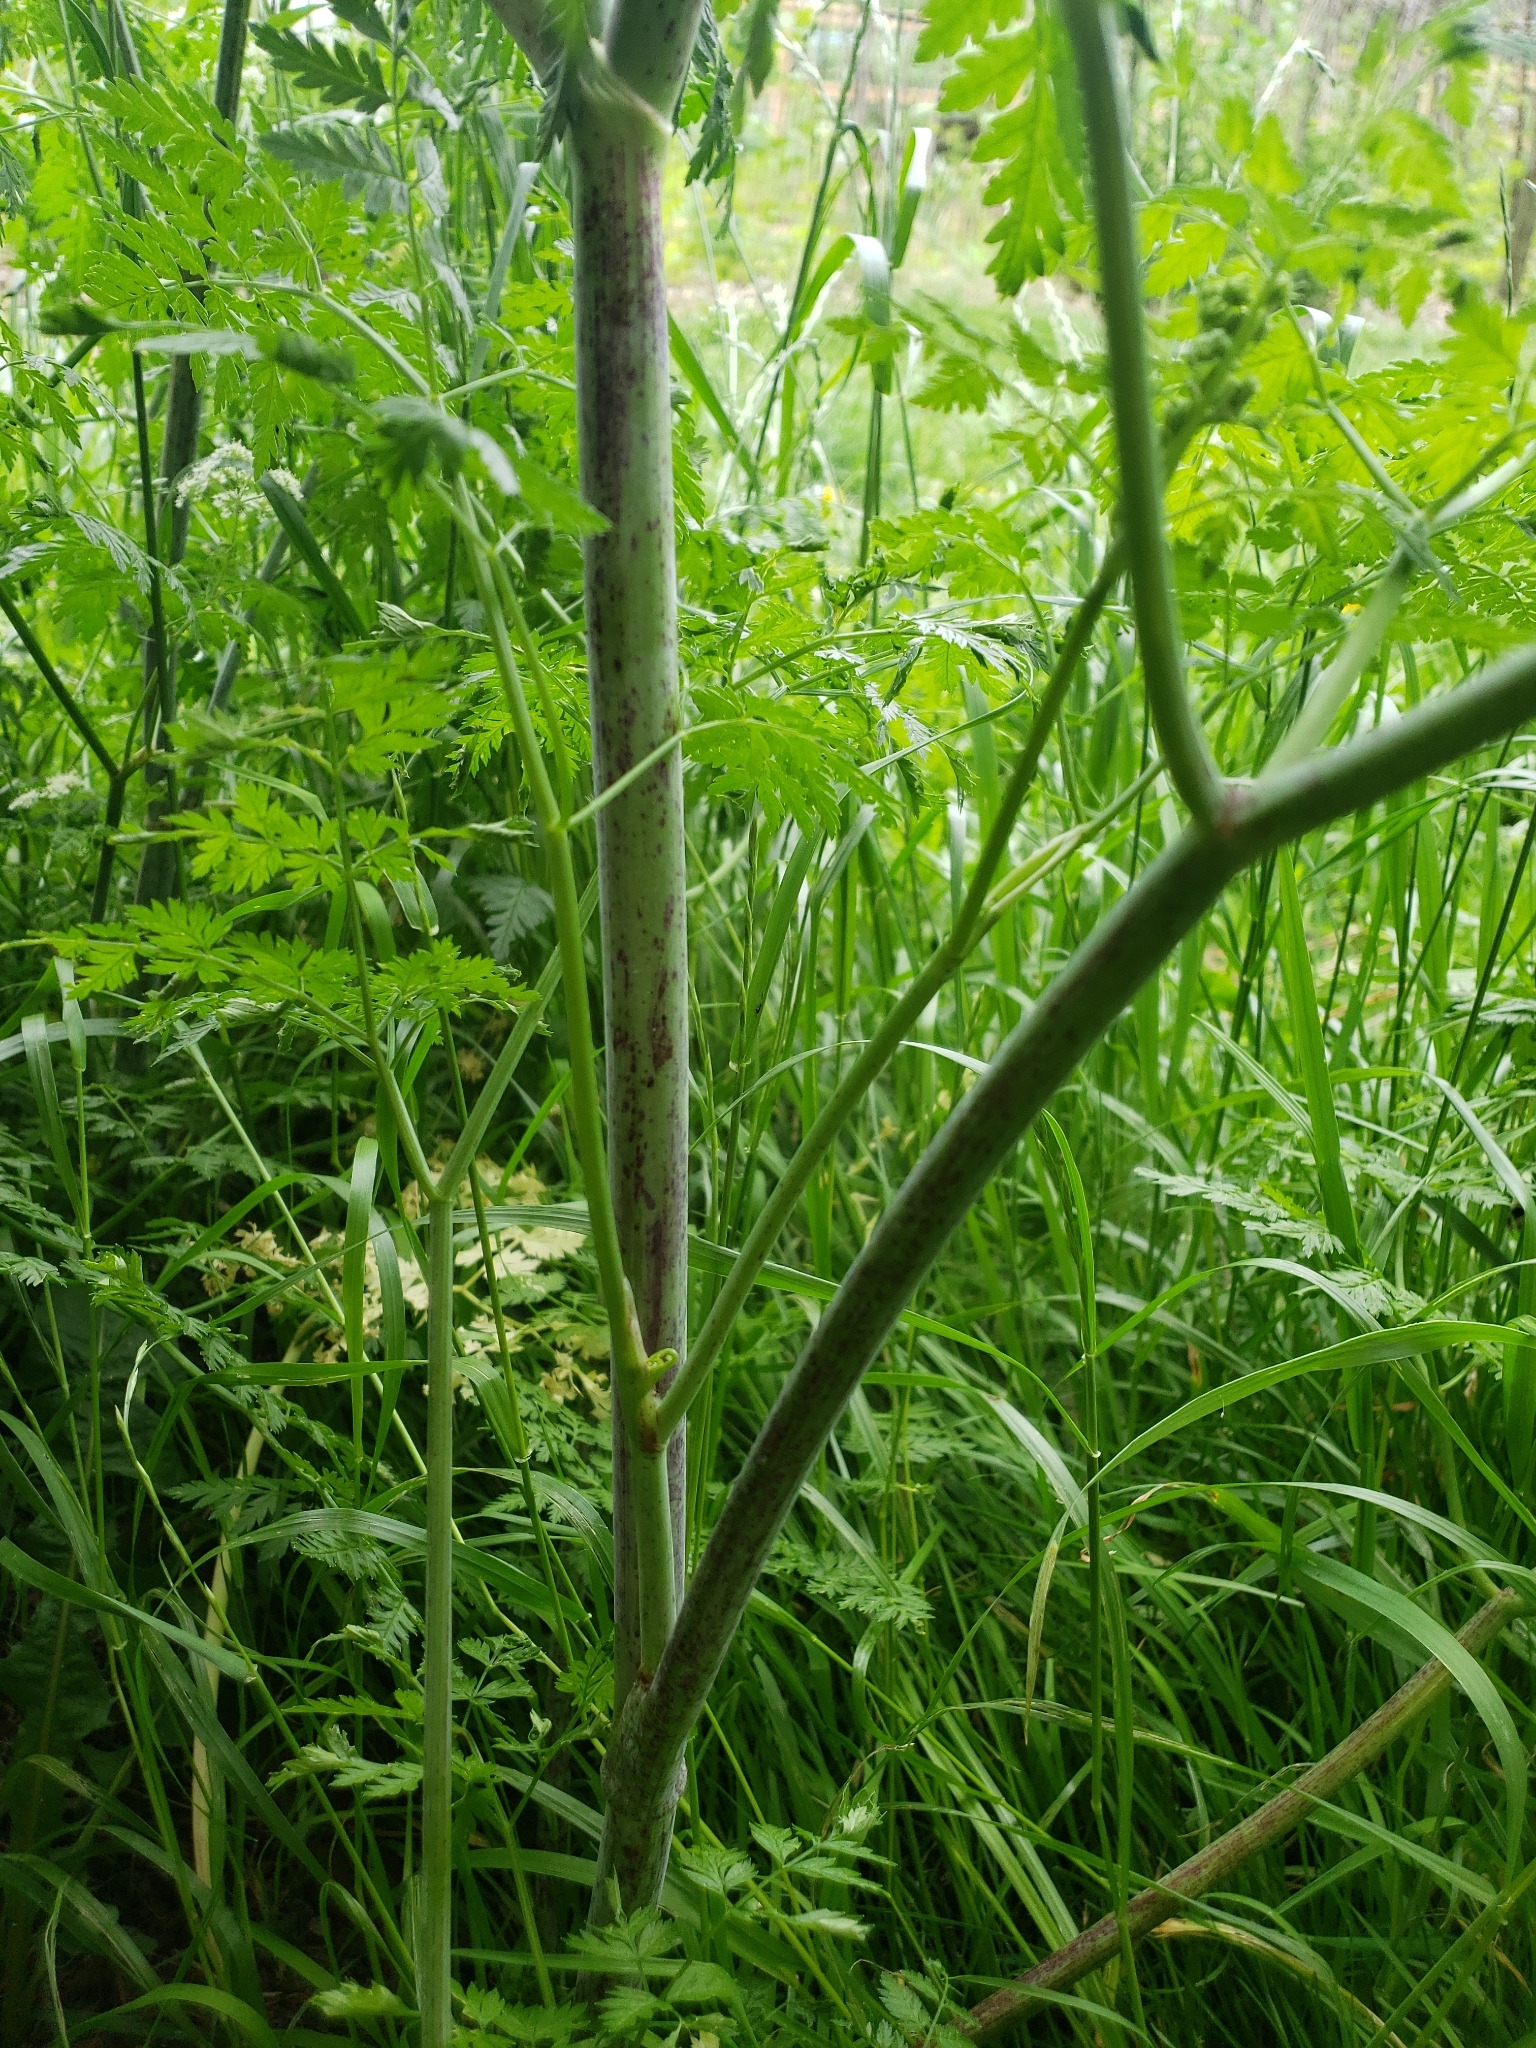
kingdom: Plantae
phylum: Tracheophyta
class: Magnoliopsida
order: Apiales
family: Apiaceae
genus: Conium
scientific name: Conium maculatum
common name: Hemlock
